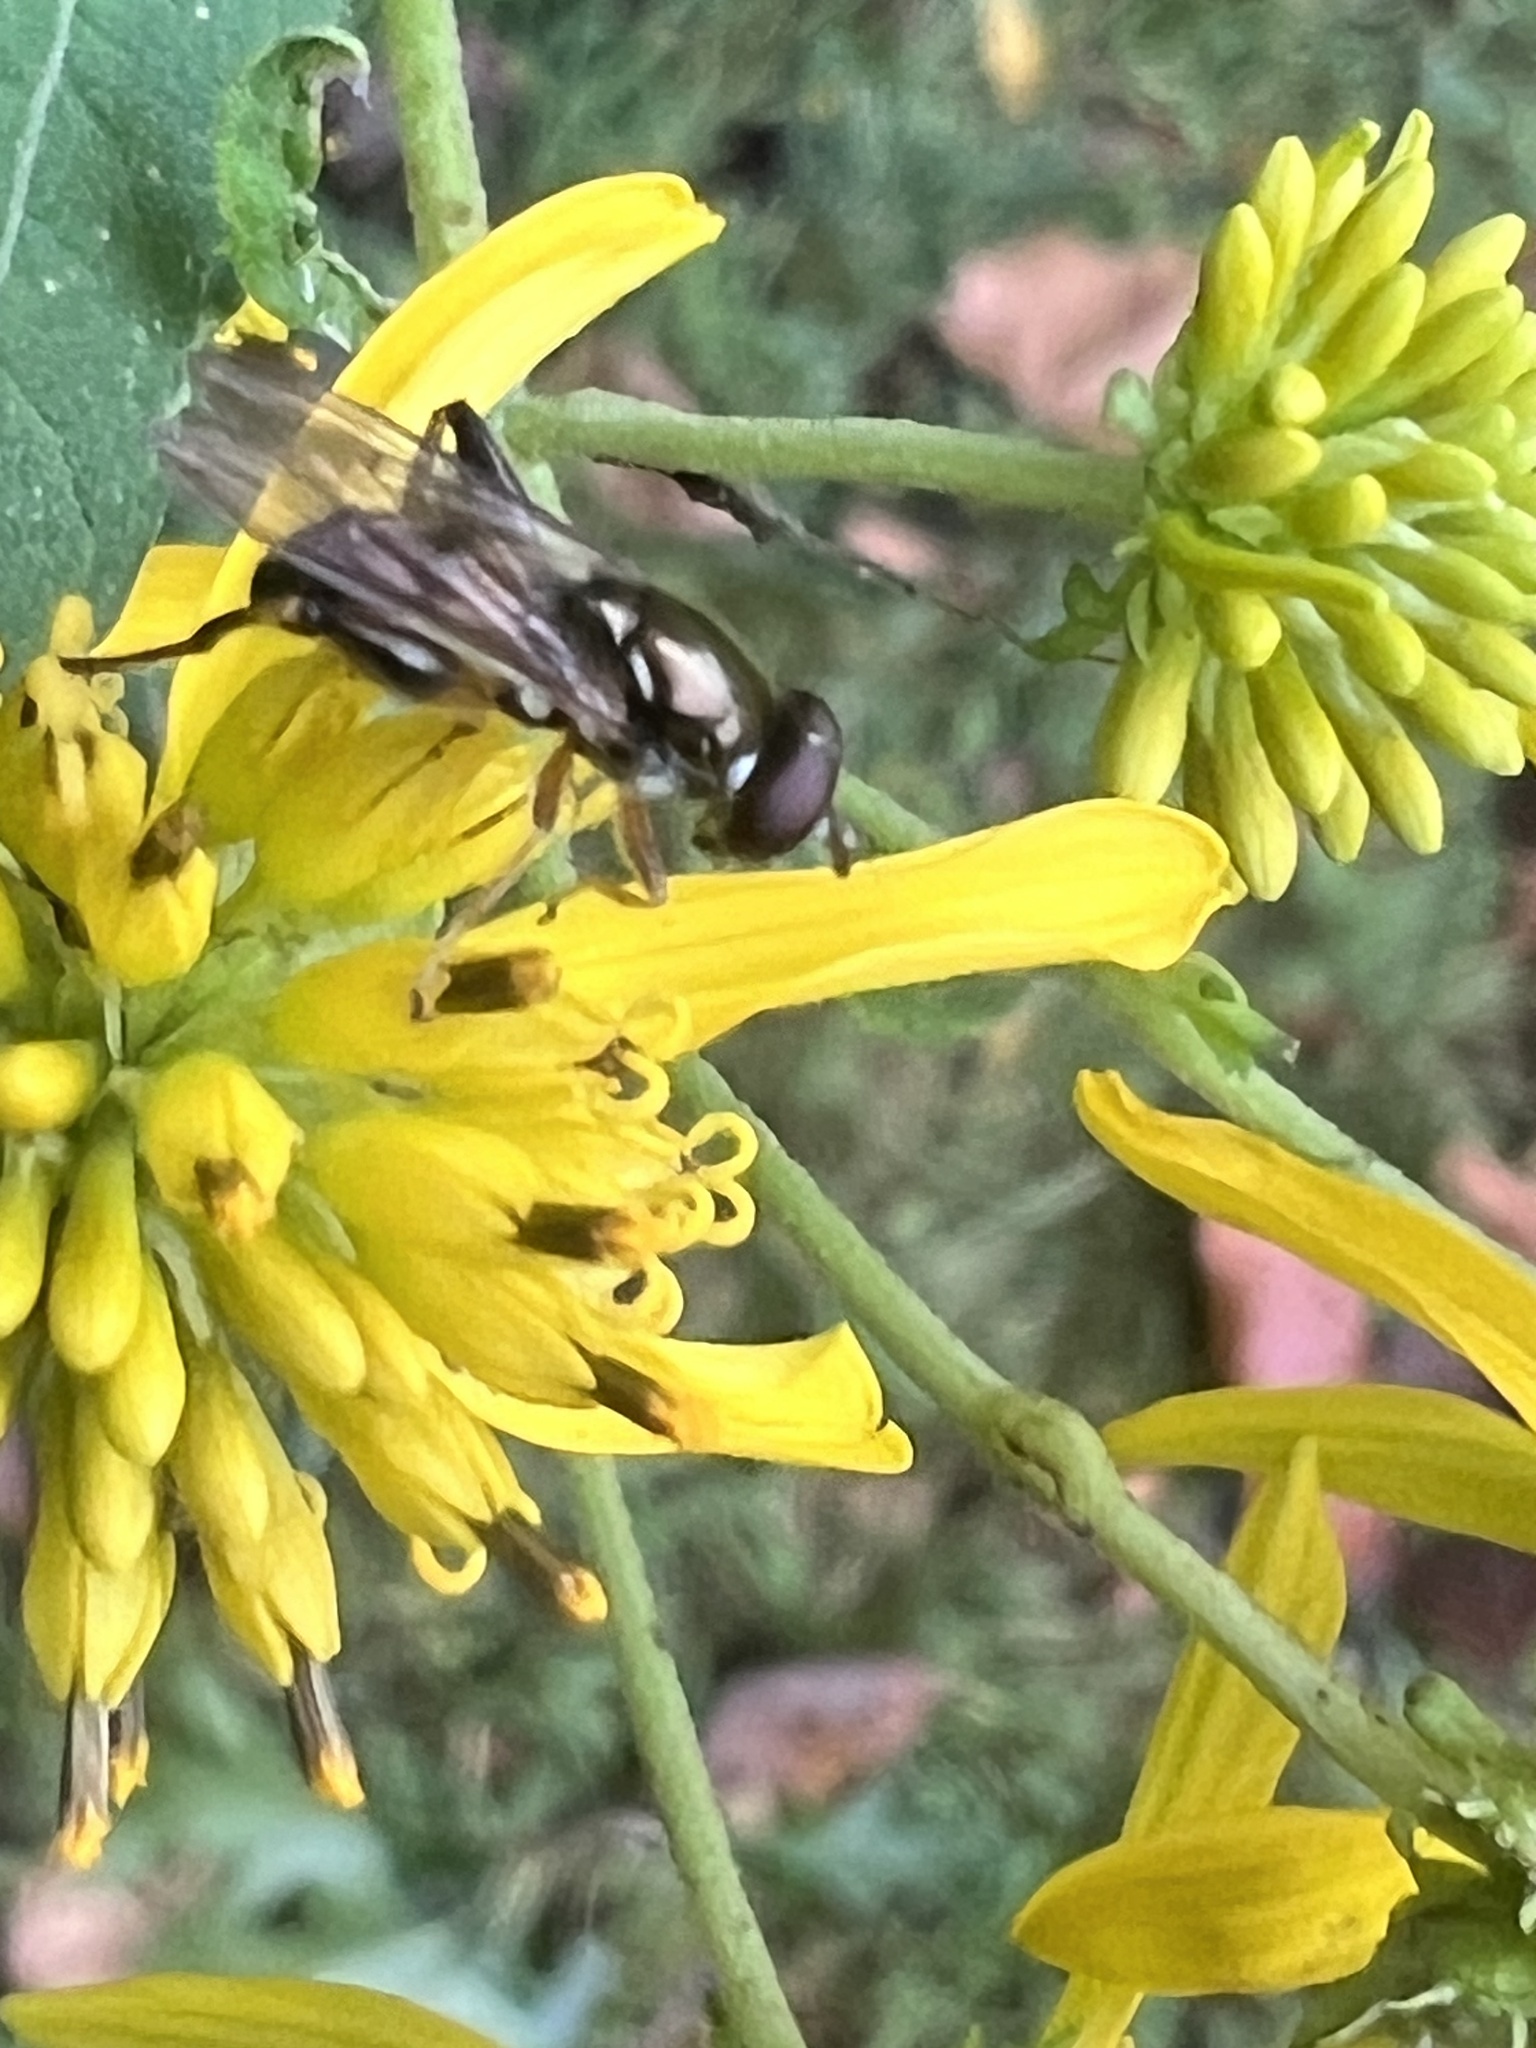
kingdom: Animalia
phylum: Arthropoda
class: Insecta
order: Diptera
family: Syrphidae
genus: Chalcosyrphus
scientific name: Chalcosyrphus metallicus
